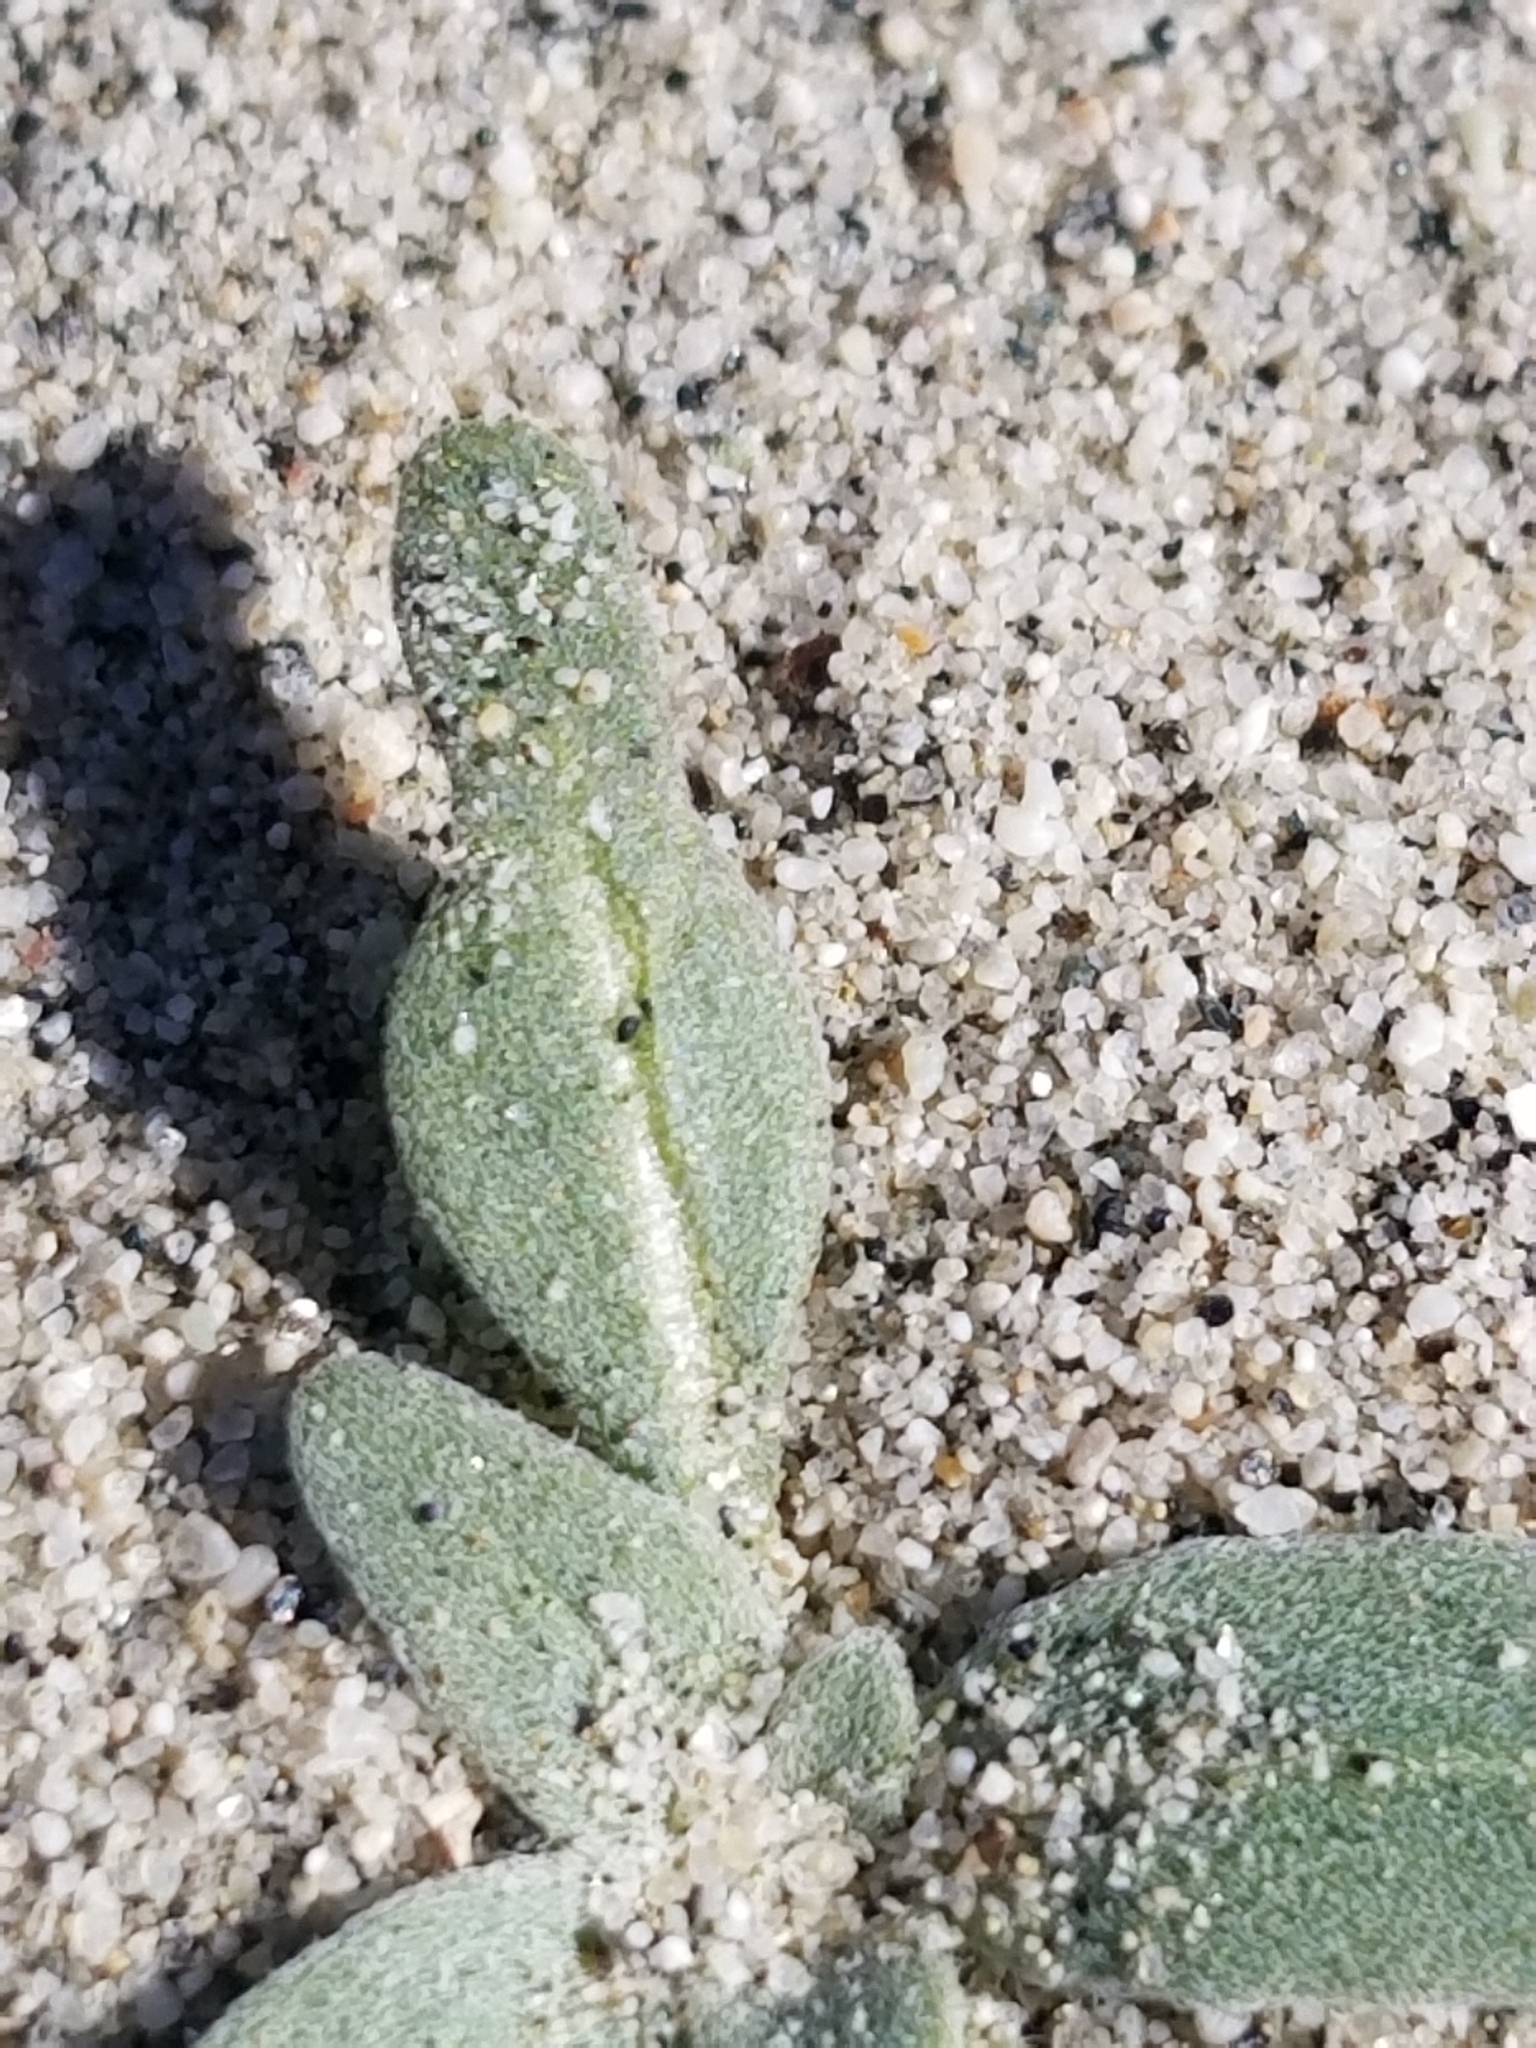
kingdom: Plantae
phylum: Tracheophyta
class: Magnoliopsida
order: Myrtales
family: Onagraceae
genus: Oenothera
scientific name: Oenothera deltoides
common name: Basket evening-primrose
